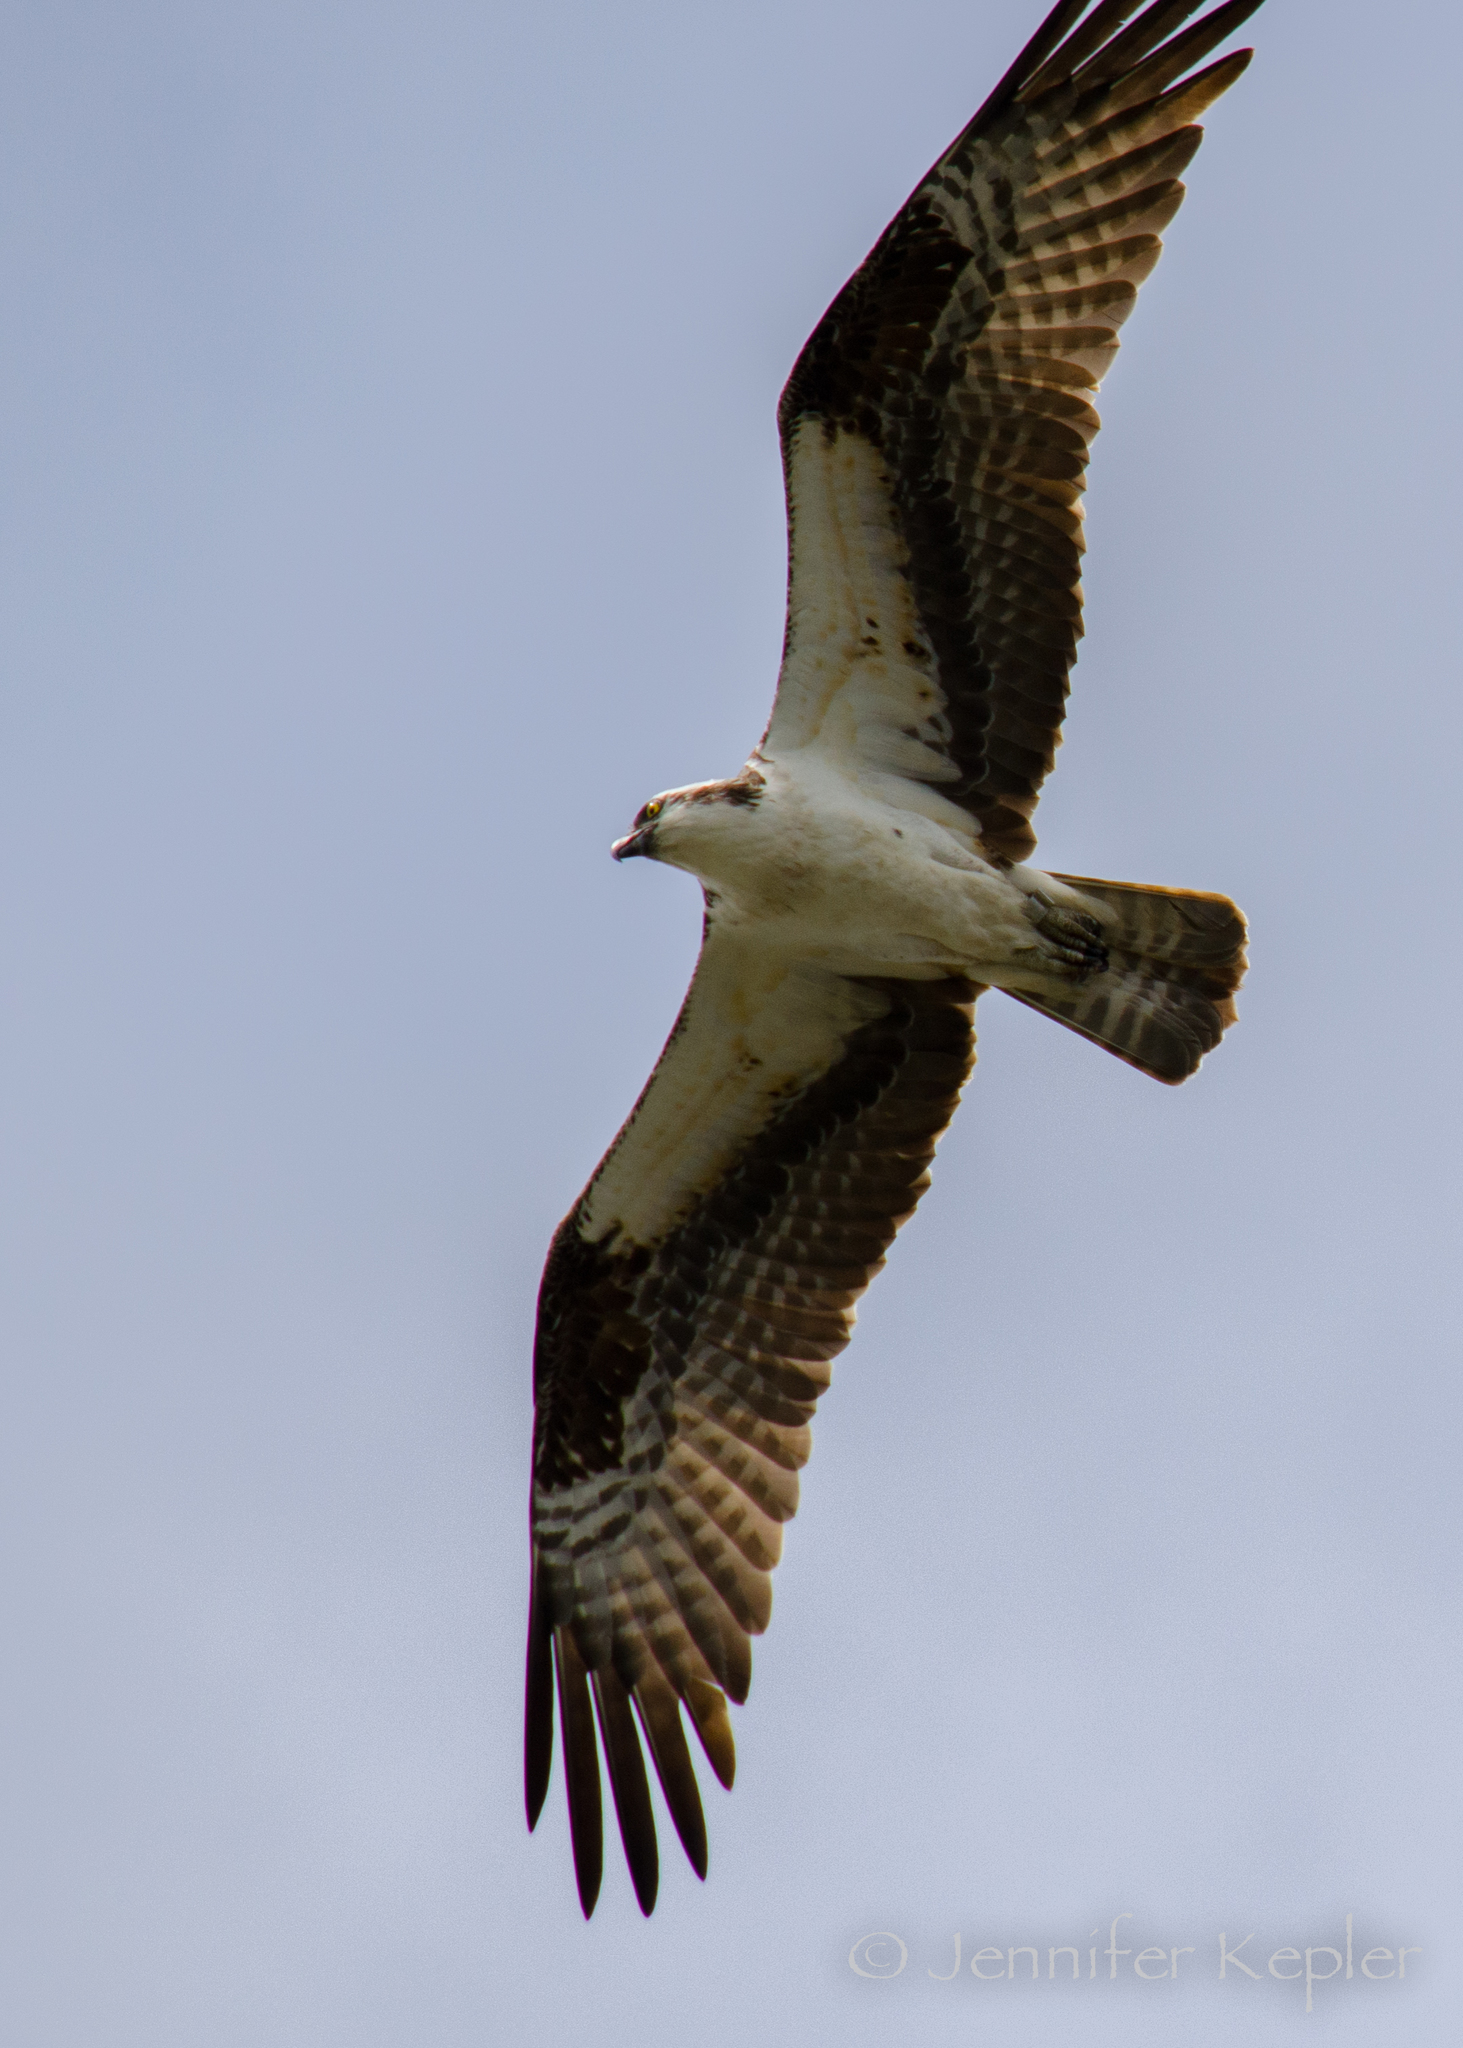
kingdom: Animalia
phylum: Chordata
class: Aves
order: Accipitriformes
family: Pandionidae
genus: Pandion
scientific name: Pandion haliaetus
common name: Osprey
